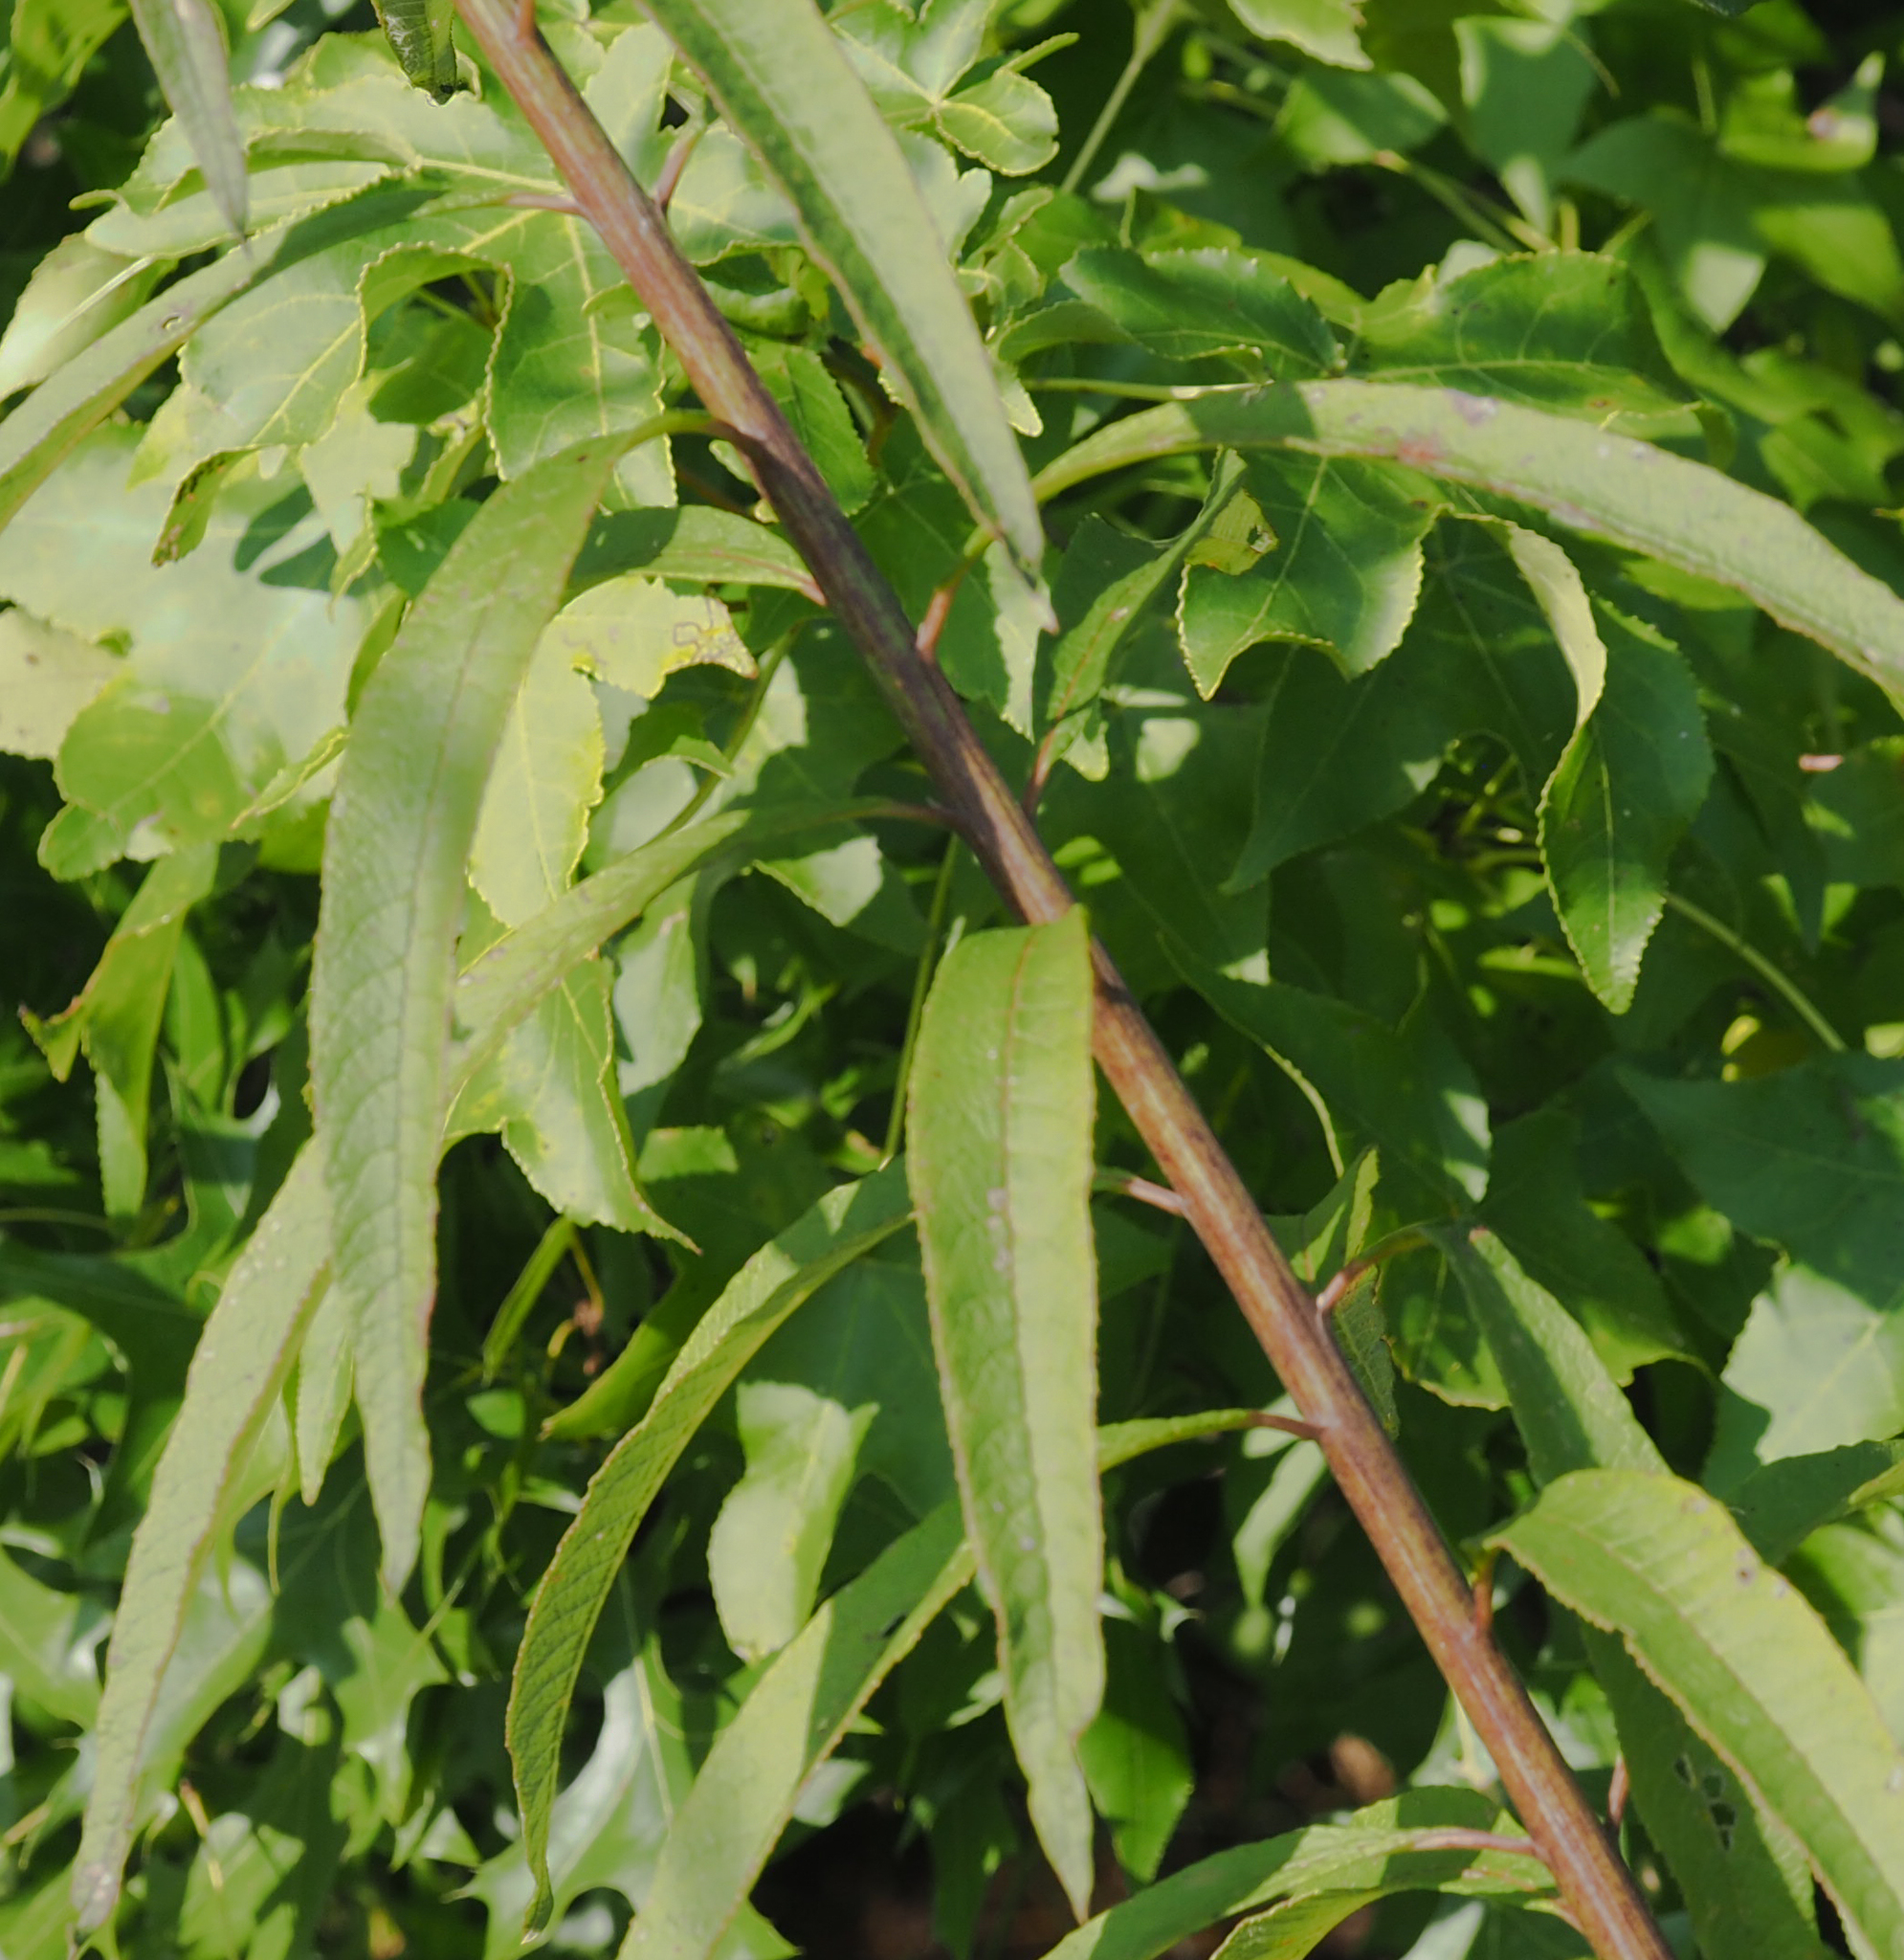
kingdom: Plantae
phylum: Tracheophyta
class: Magnoliopsida
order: Asterales
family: Asteraceae
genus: Vernonia
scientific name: Vernonia noveboracensis
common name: New york ironweed
